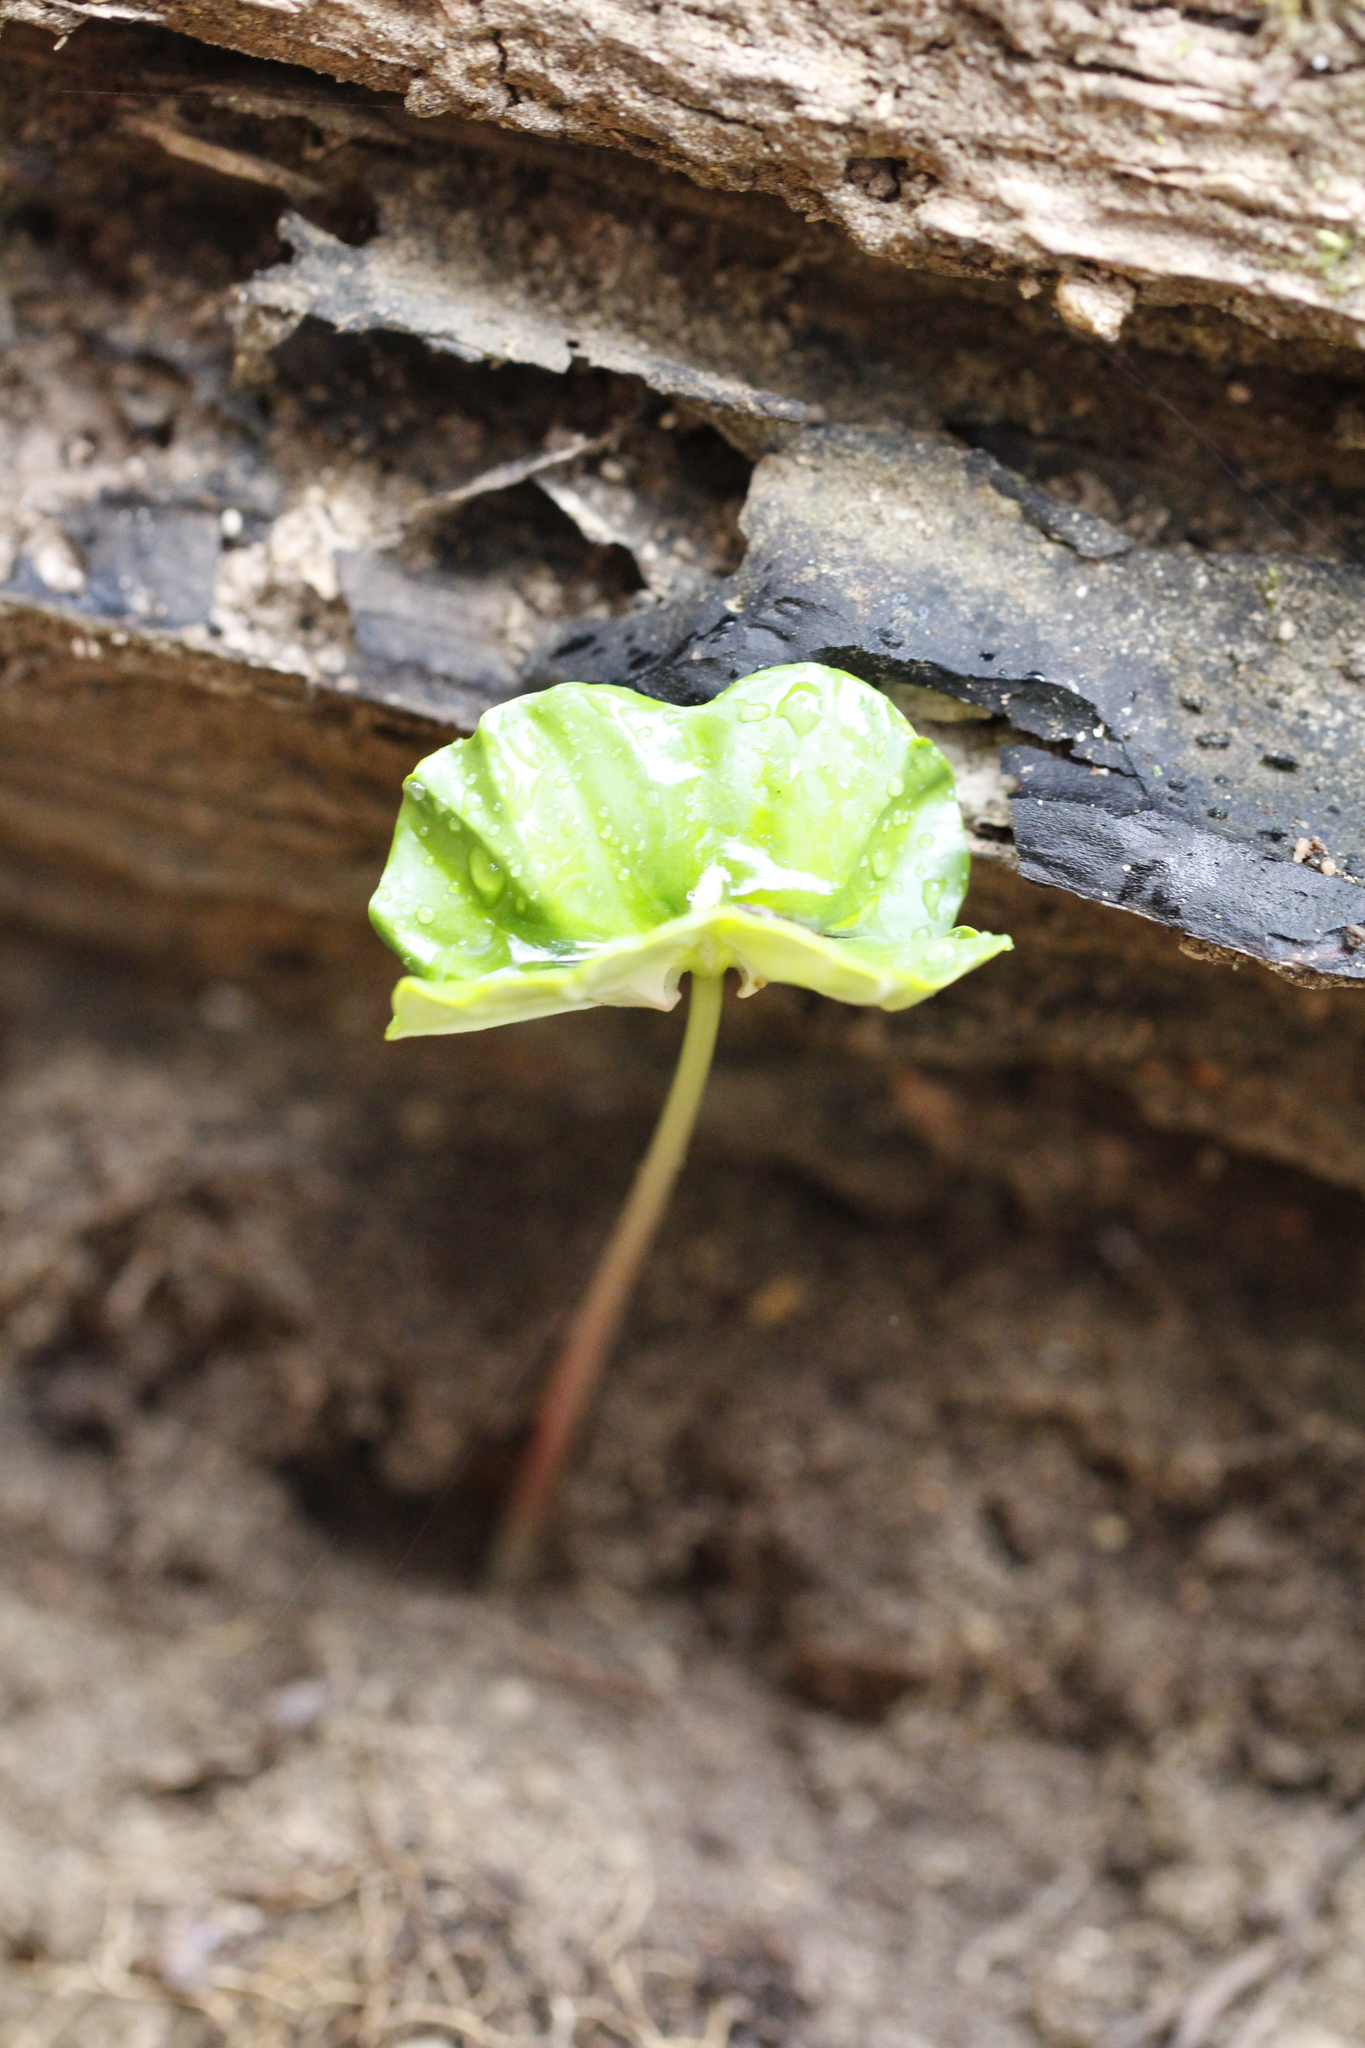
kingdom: Plantae
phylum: Tracheophyta
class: Magnoliopsida
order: Fagales
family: Fagaceae
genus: Fagus
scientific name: Fagus sylvatica
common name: Beech
